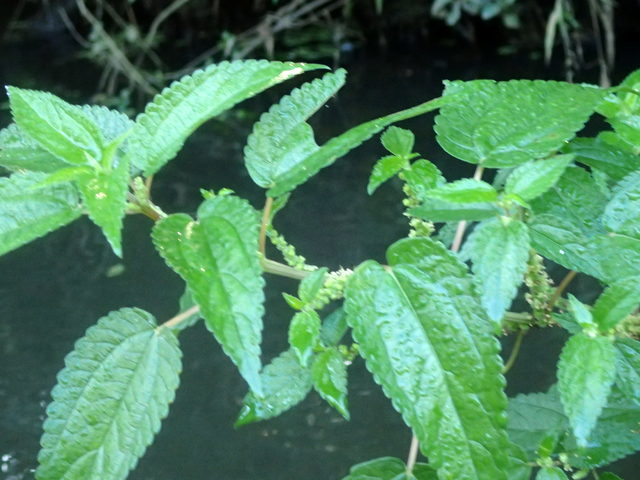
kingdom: Plantae
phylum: Tracheophyta
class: Magnoliopsida
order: Rosales
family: Urticaceae
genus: Boehmeria
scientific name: Boehmeria cylindrica
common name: Bog-hemp
